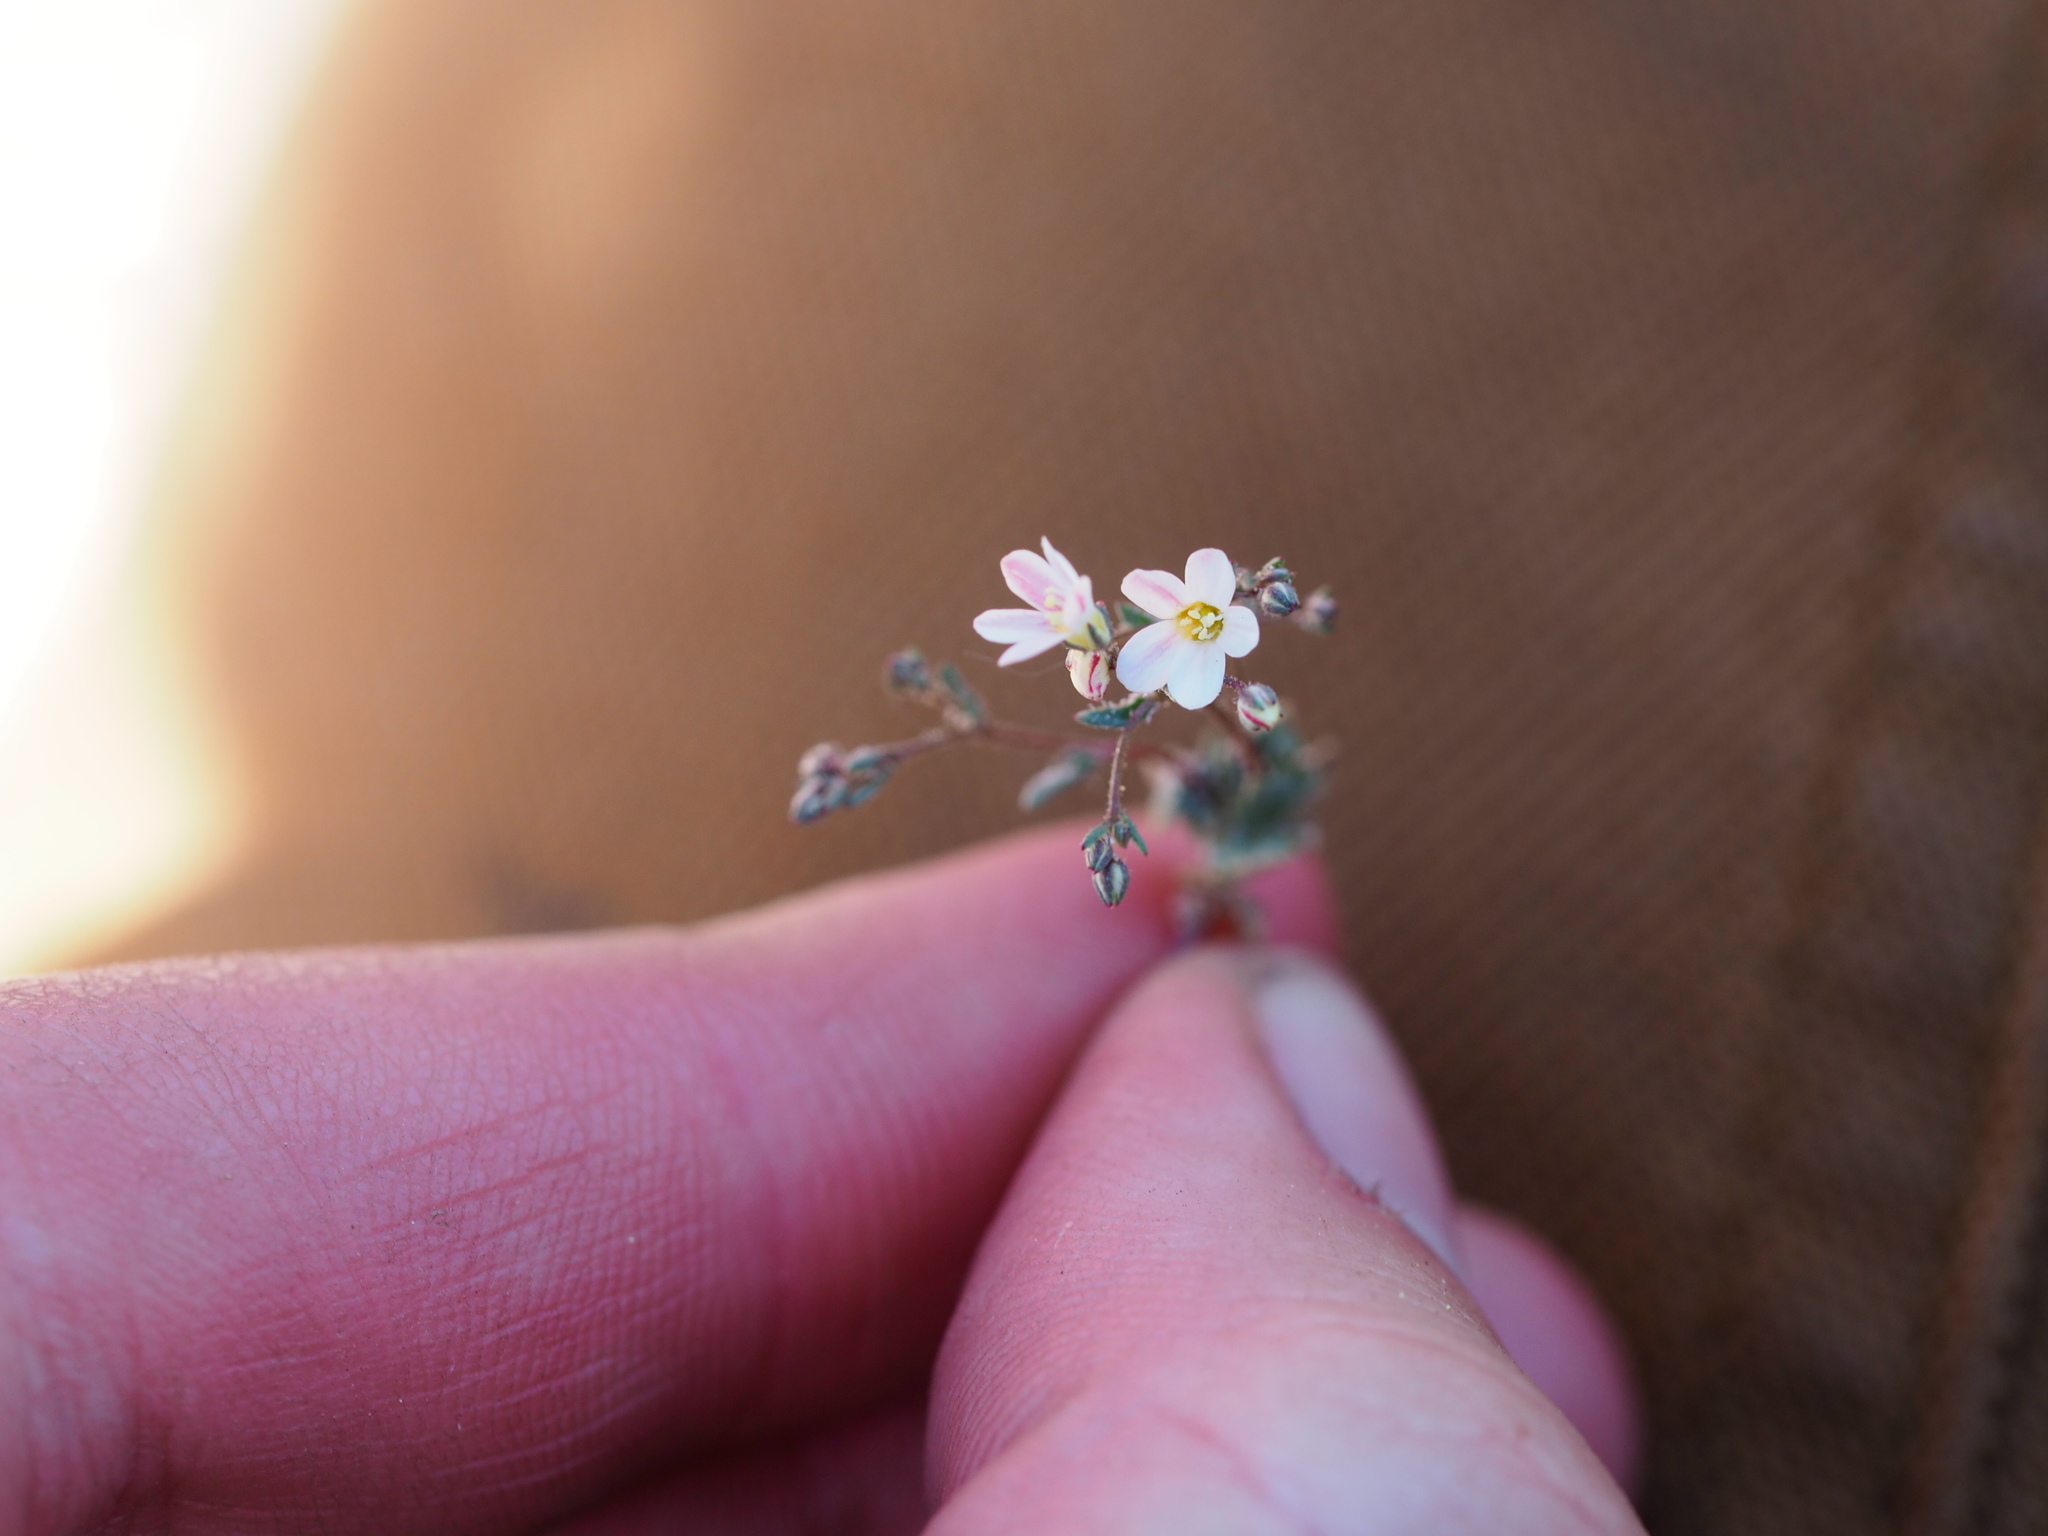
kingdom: Plantae
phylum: Tracheophyta
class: Magnoliopsida
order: Ericales
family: Polemoniaceae
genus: Linanthus
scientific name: Linanthus inyoensis
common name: Inyo gilia
